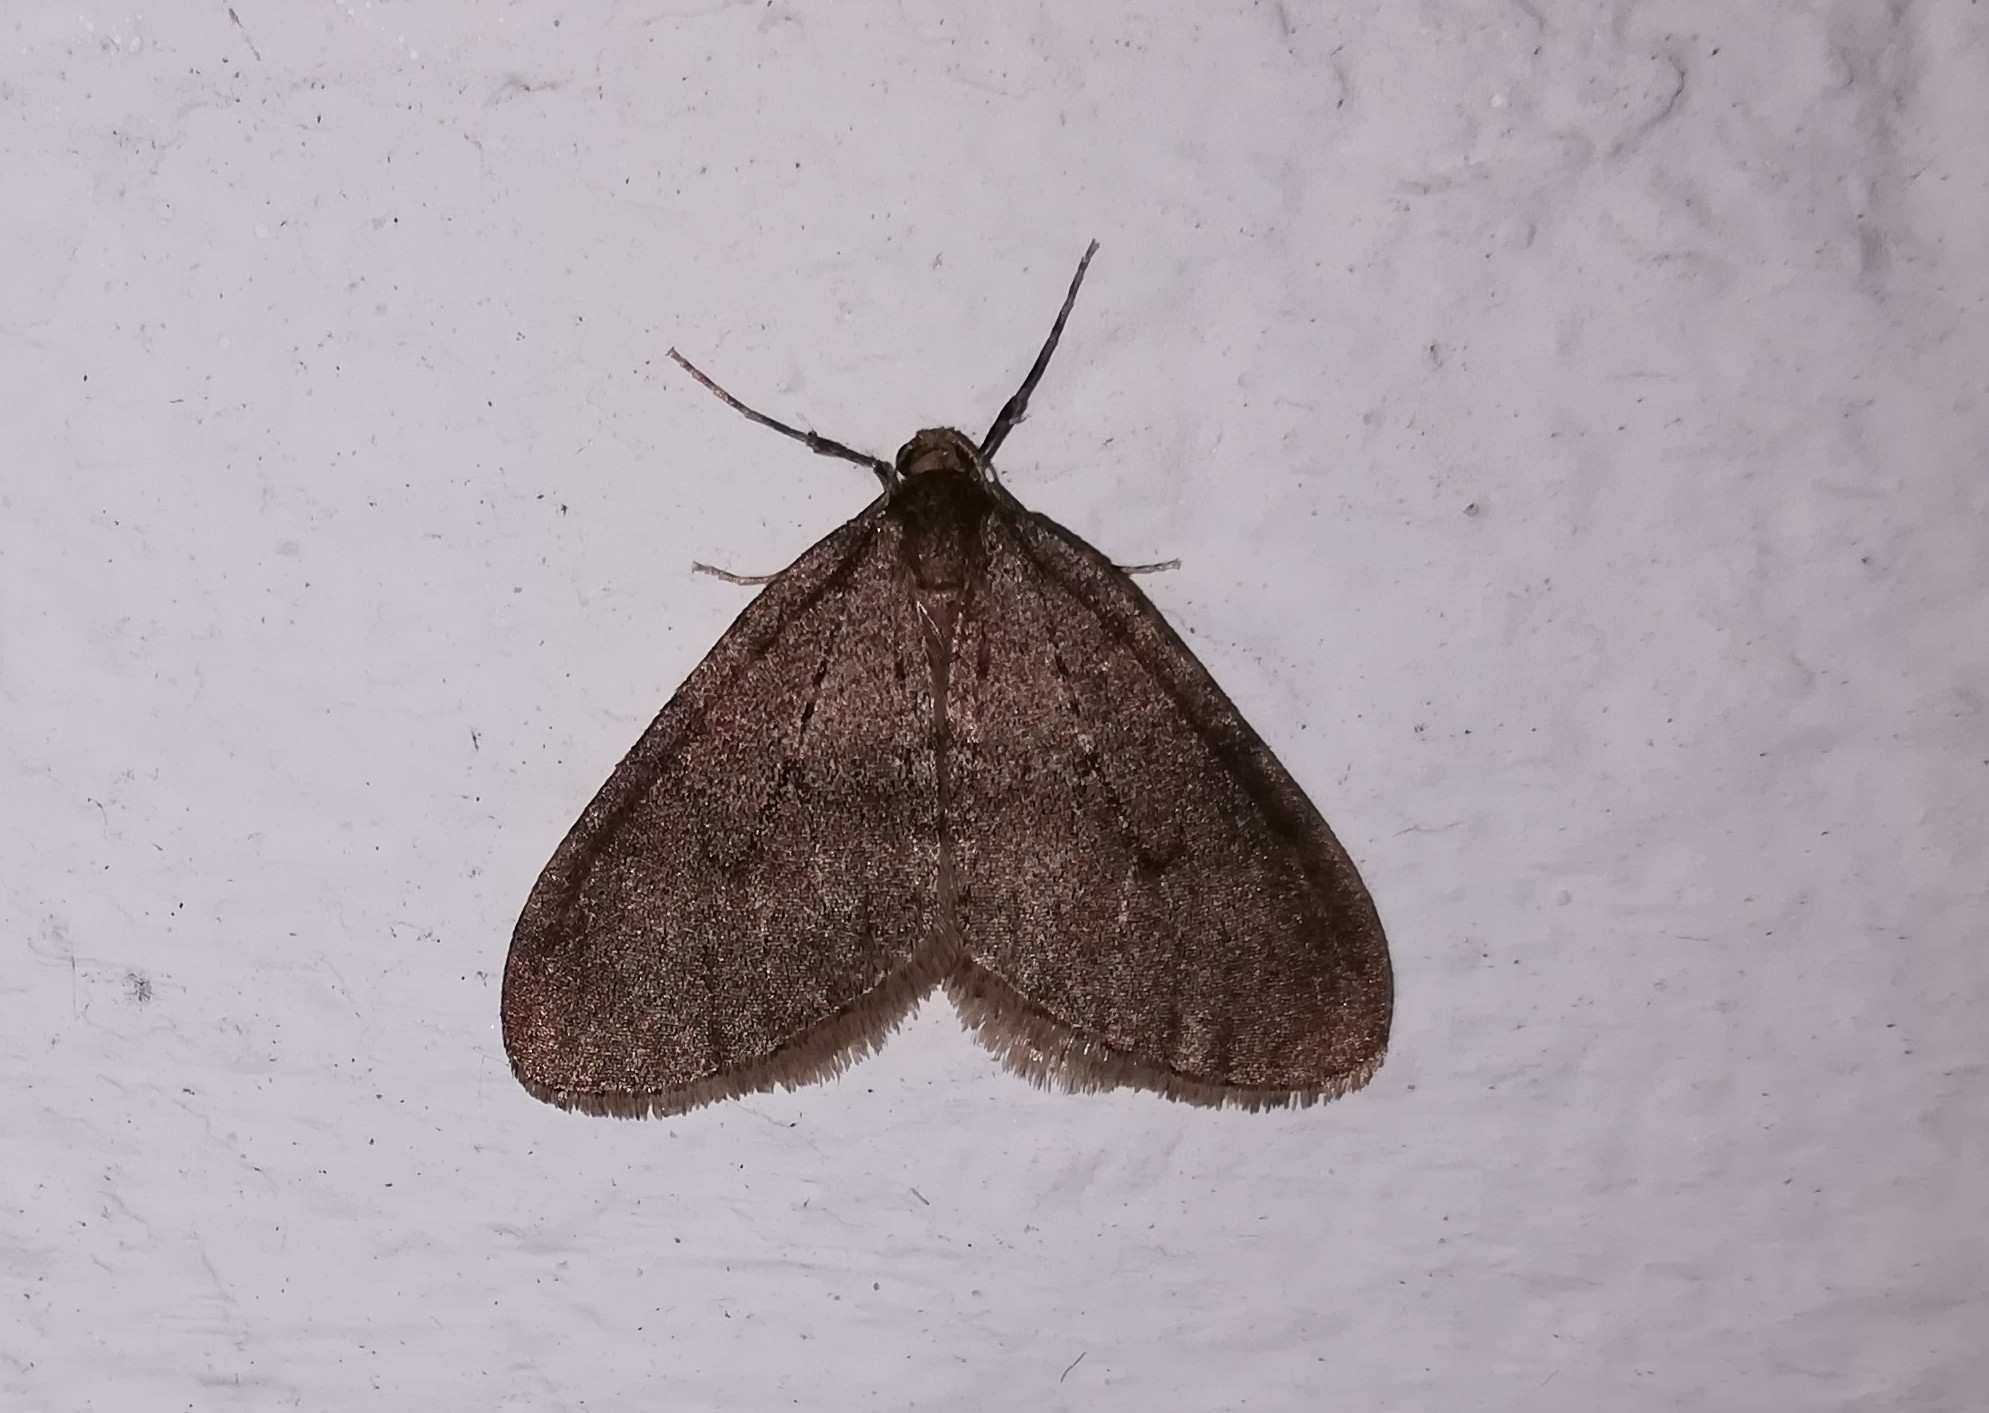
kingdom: Animalia
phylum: Arthropoda
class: Insecta
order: Lepidoptera
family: Geometridae
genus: Operophtera
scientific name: Operophtera brumata
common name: Winter moth
